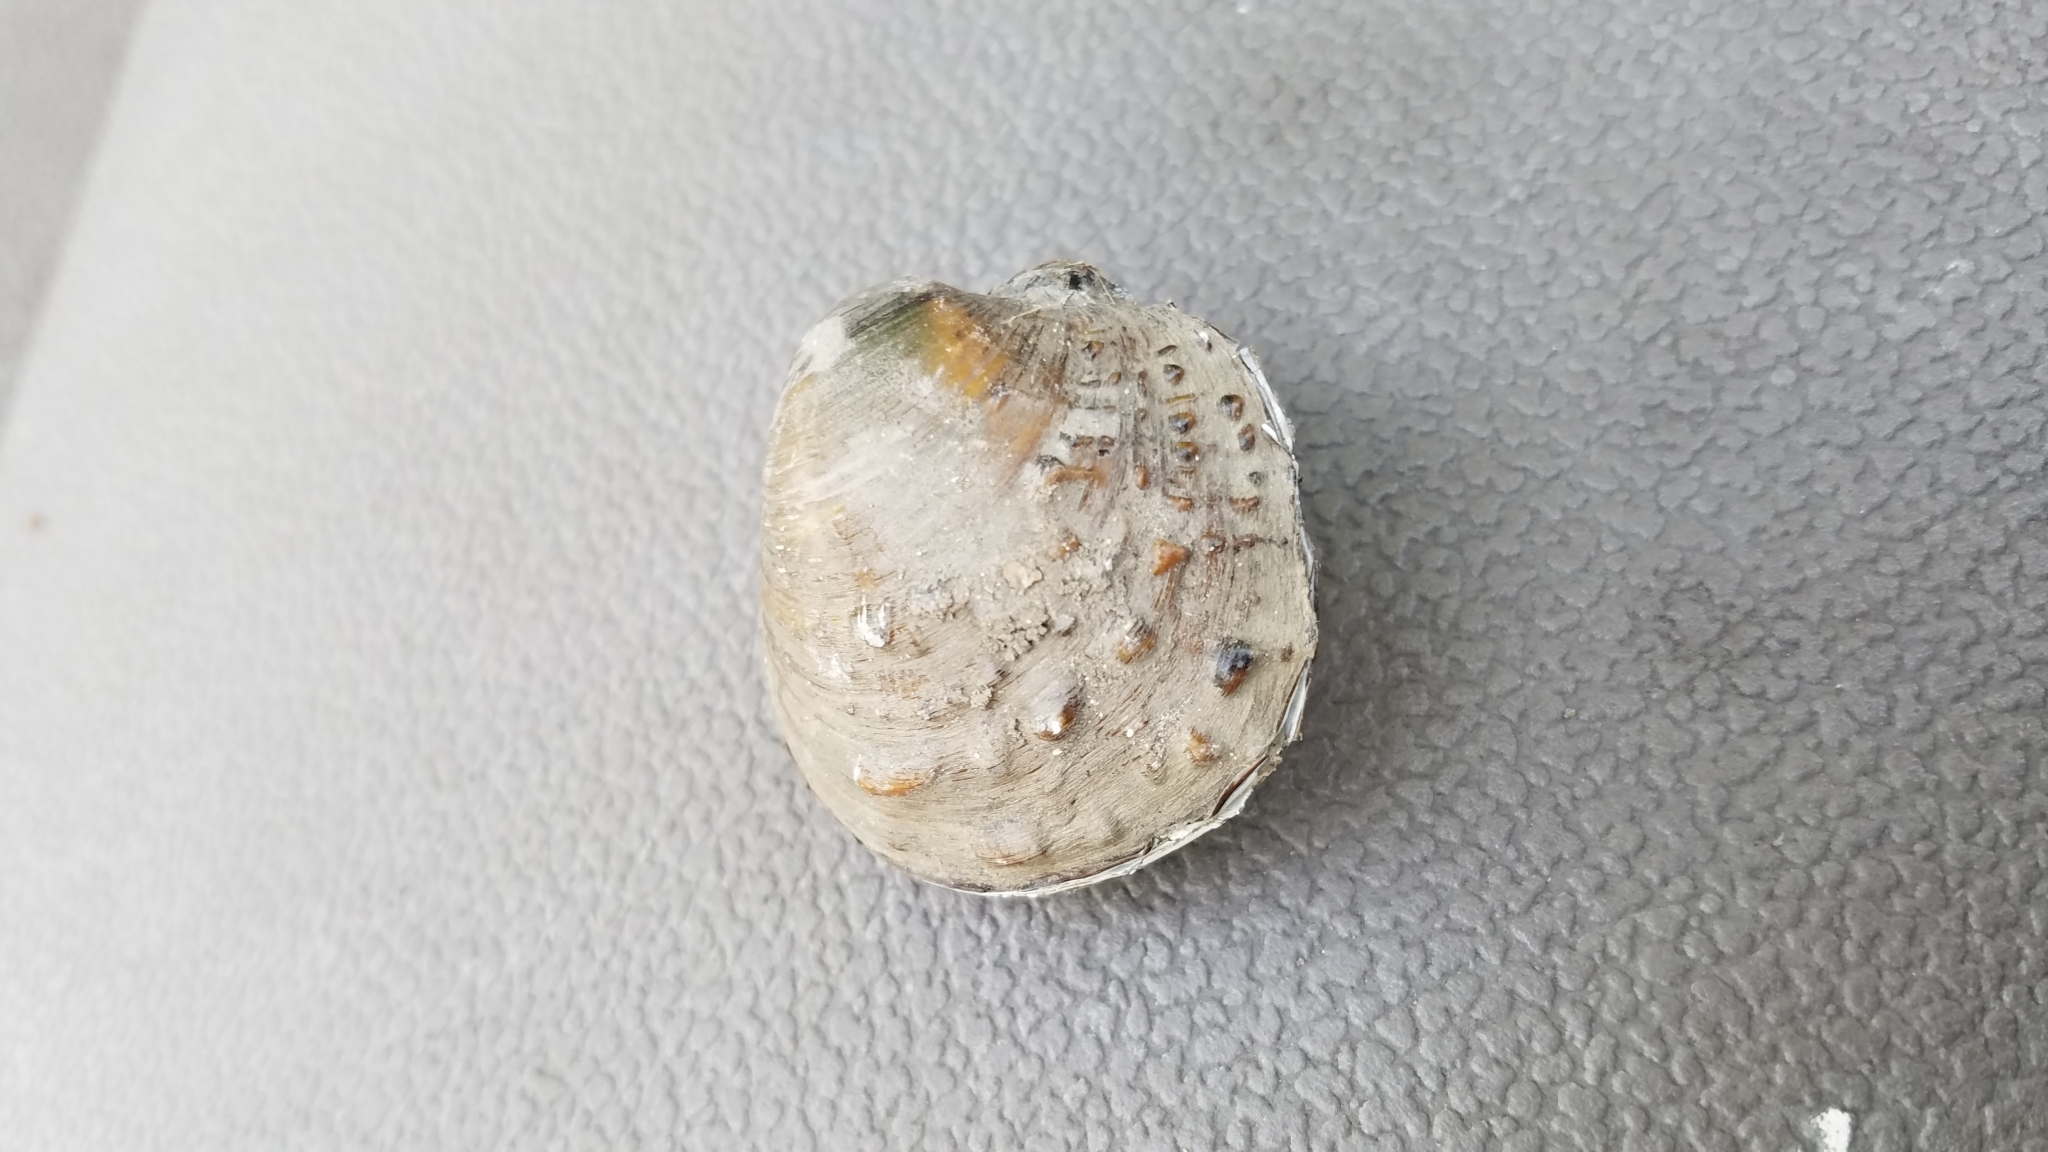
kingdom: Animalia
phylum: Mollusca
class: Bivalvia
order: Unionida
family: Unionidae
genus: Cyclonaias
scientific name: Cyclonaias pustulosa
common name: Pimpleback
